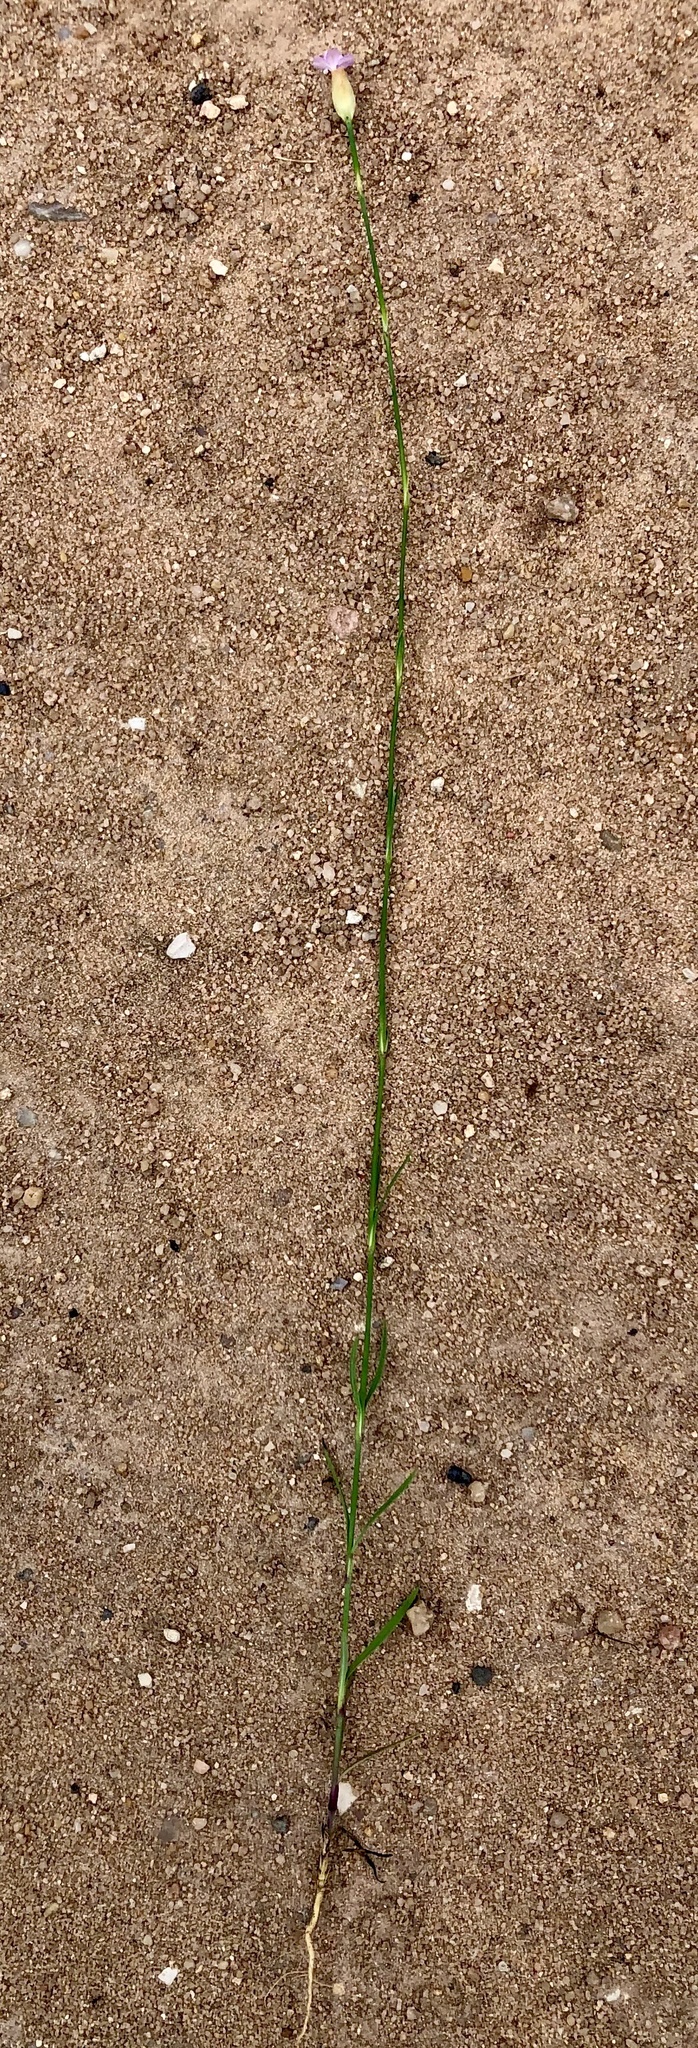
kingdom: Plantae
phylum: Tracheophyta
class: Magnoliopsida
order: Caryophyllales
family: Caryophyllaceae
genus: Petrorhagia
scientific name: Petrorhagia prolifera
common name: Proliferous pink
